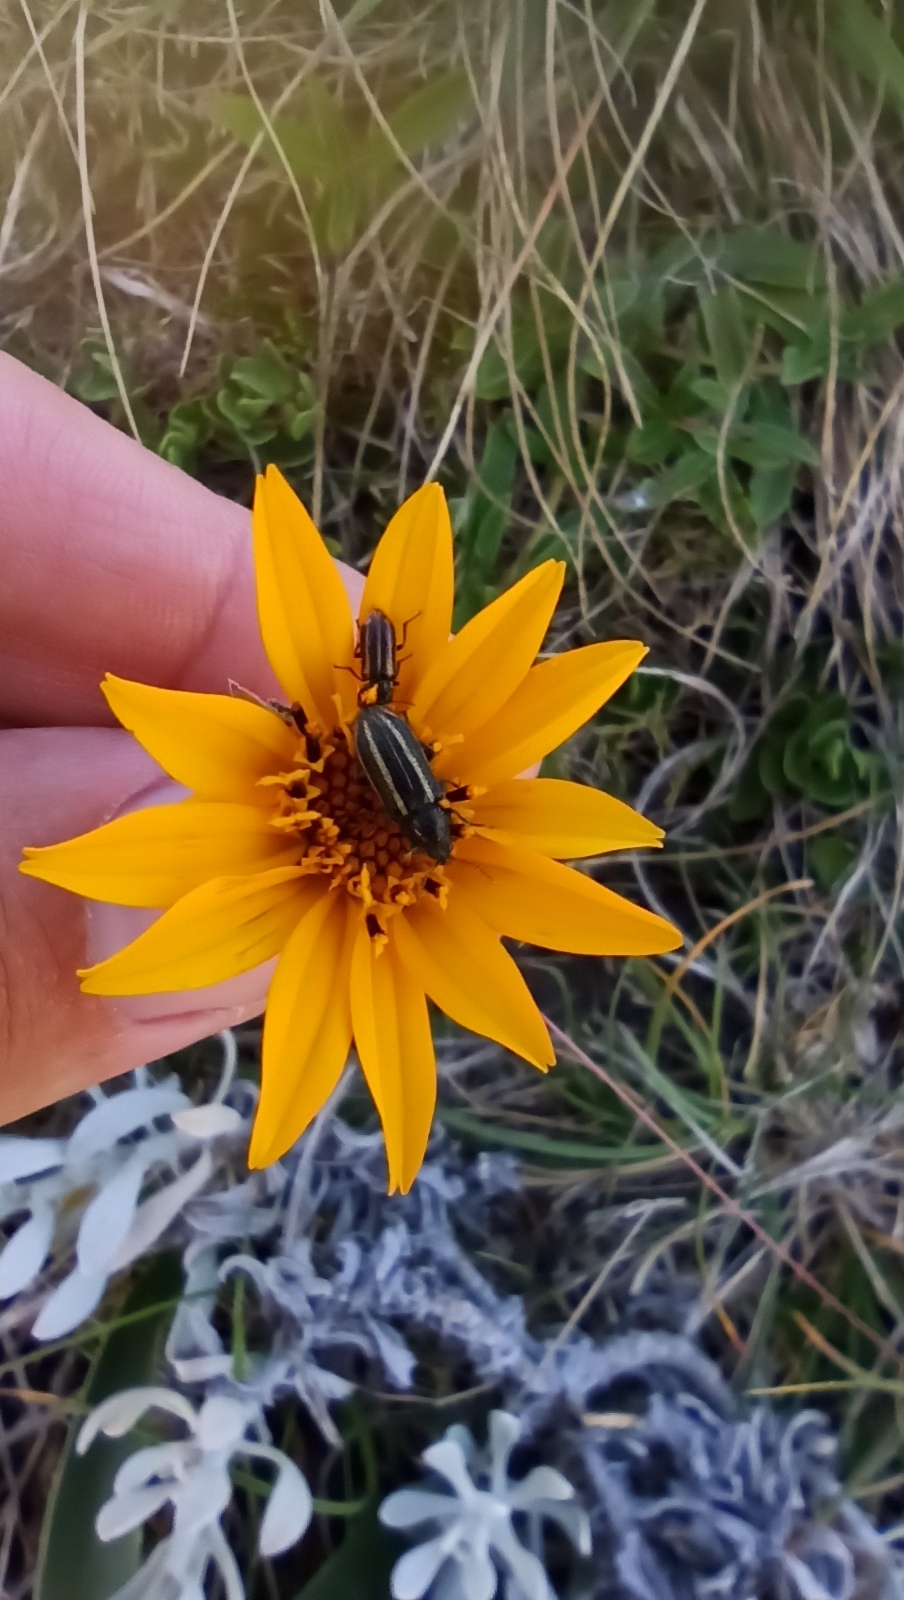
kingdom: Plantae
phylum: Tracheophyta
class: Magnoliopsida
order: Asterales
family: Asteraceae
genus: Wedelia
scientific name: Wedelia montevidensis
